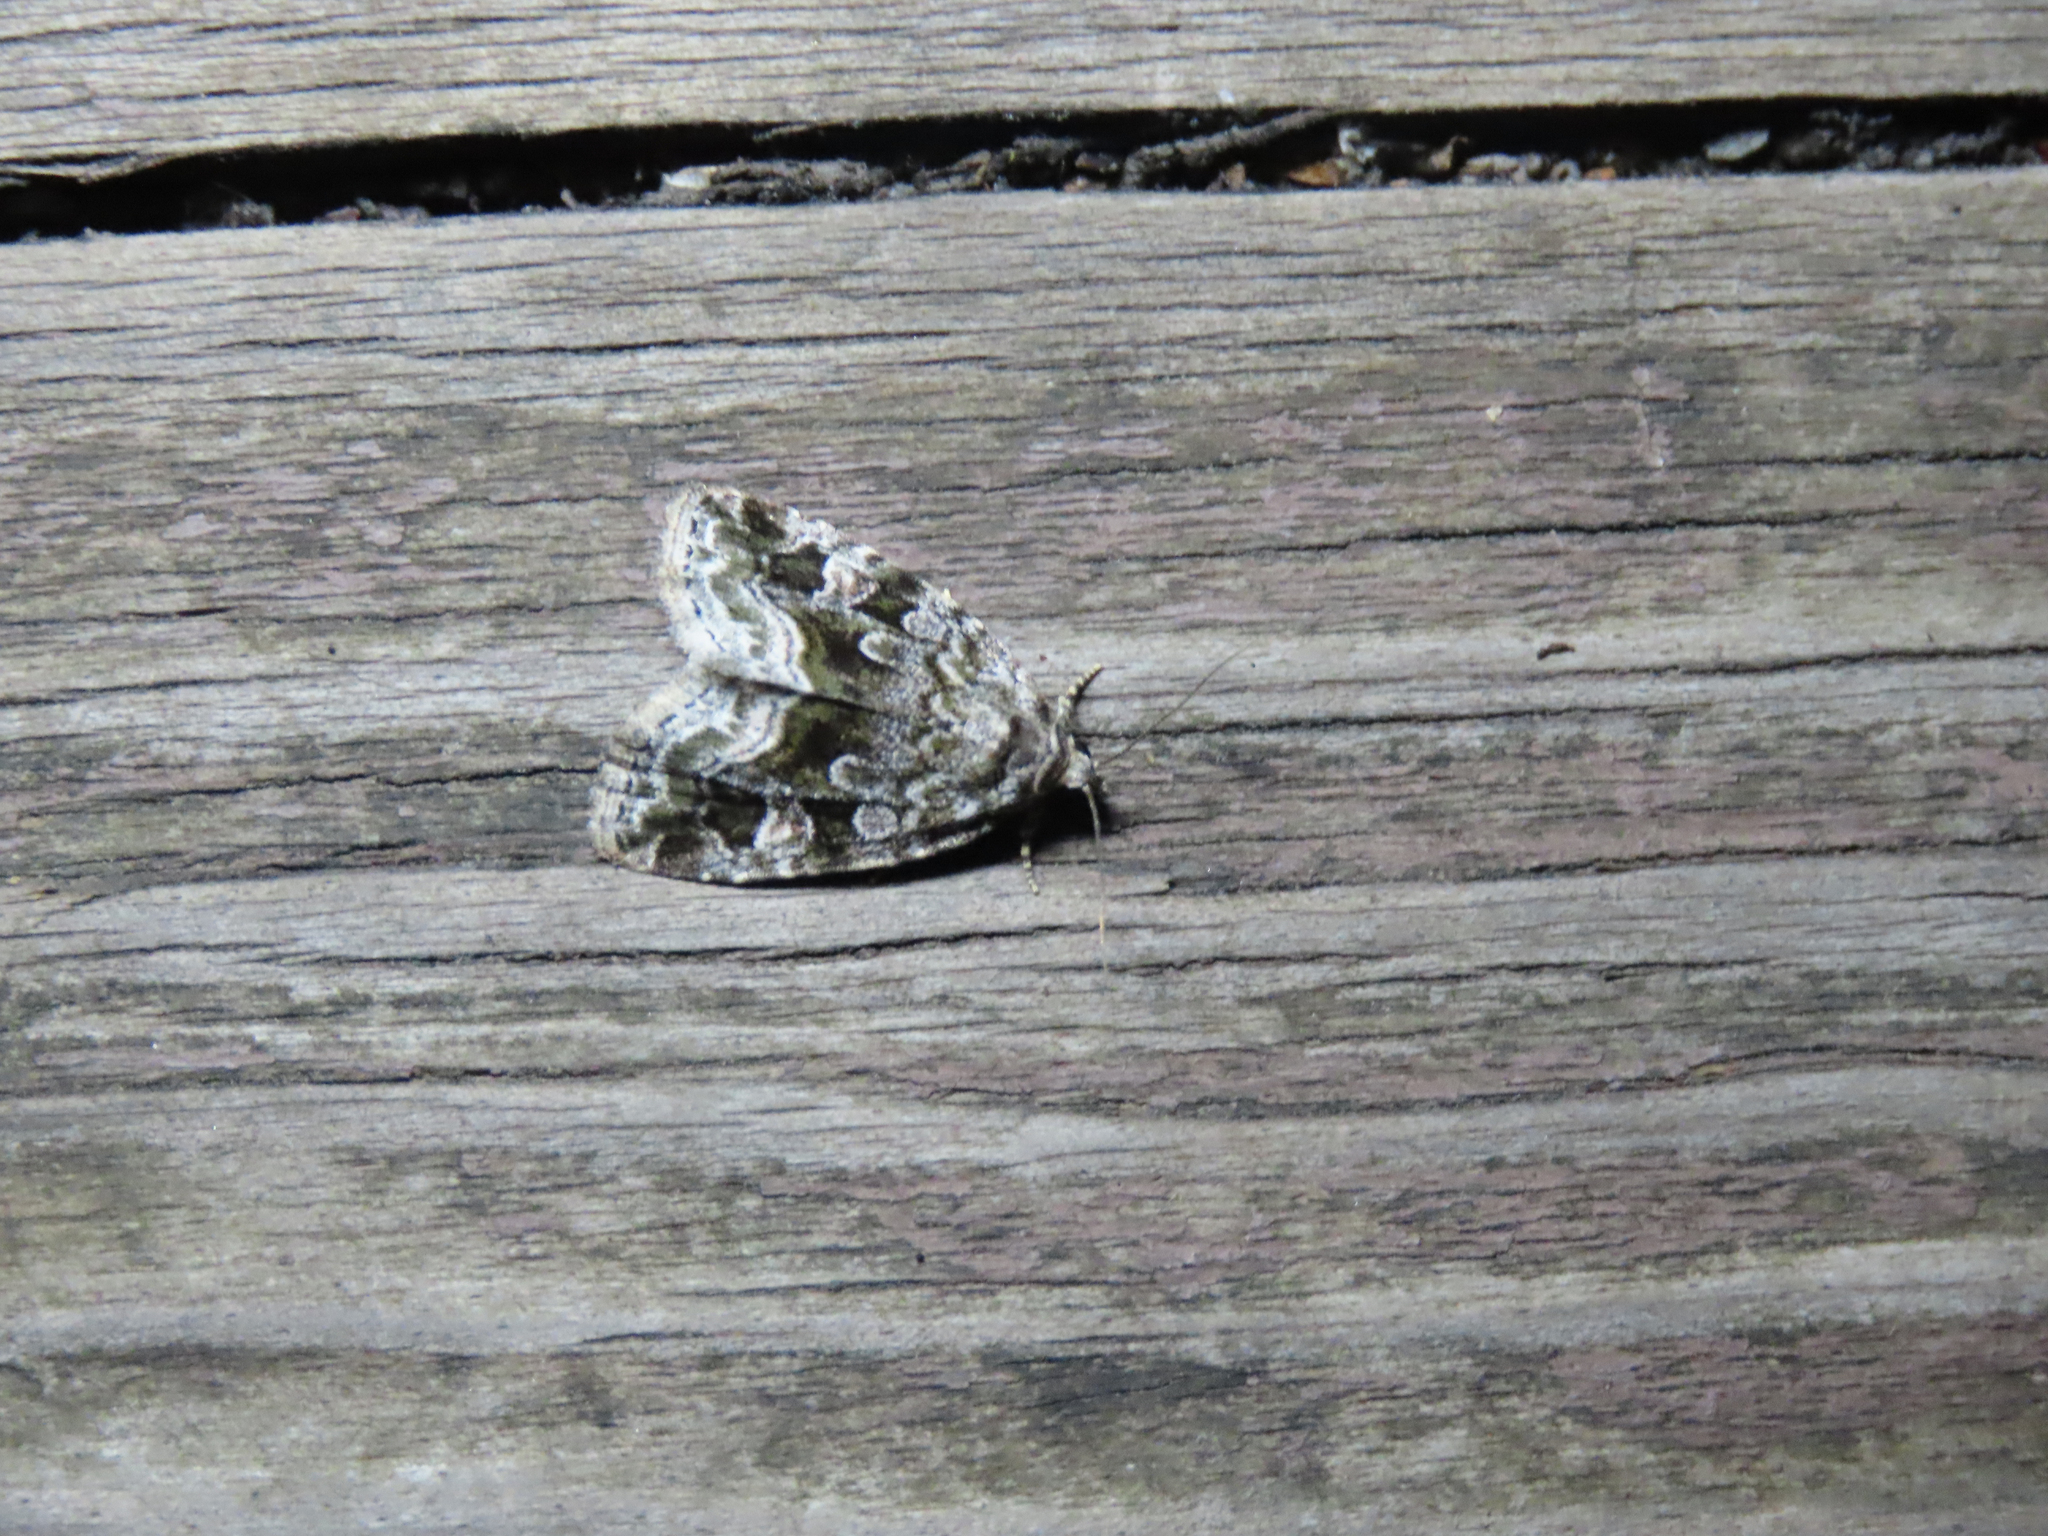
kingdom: Animalia
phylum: Arthropoda
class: Insecta
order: Lepidoptera
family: Noctuidae
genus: Protodeltote
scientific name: Protodeltote muscosula
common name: Large mossy glyph
